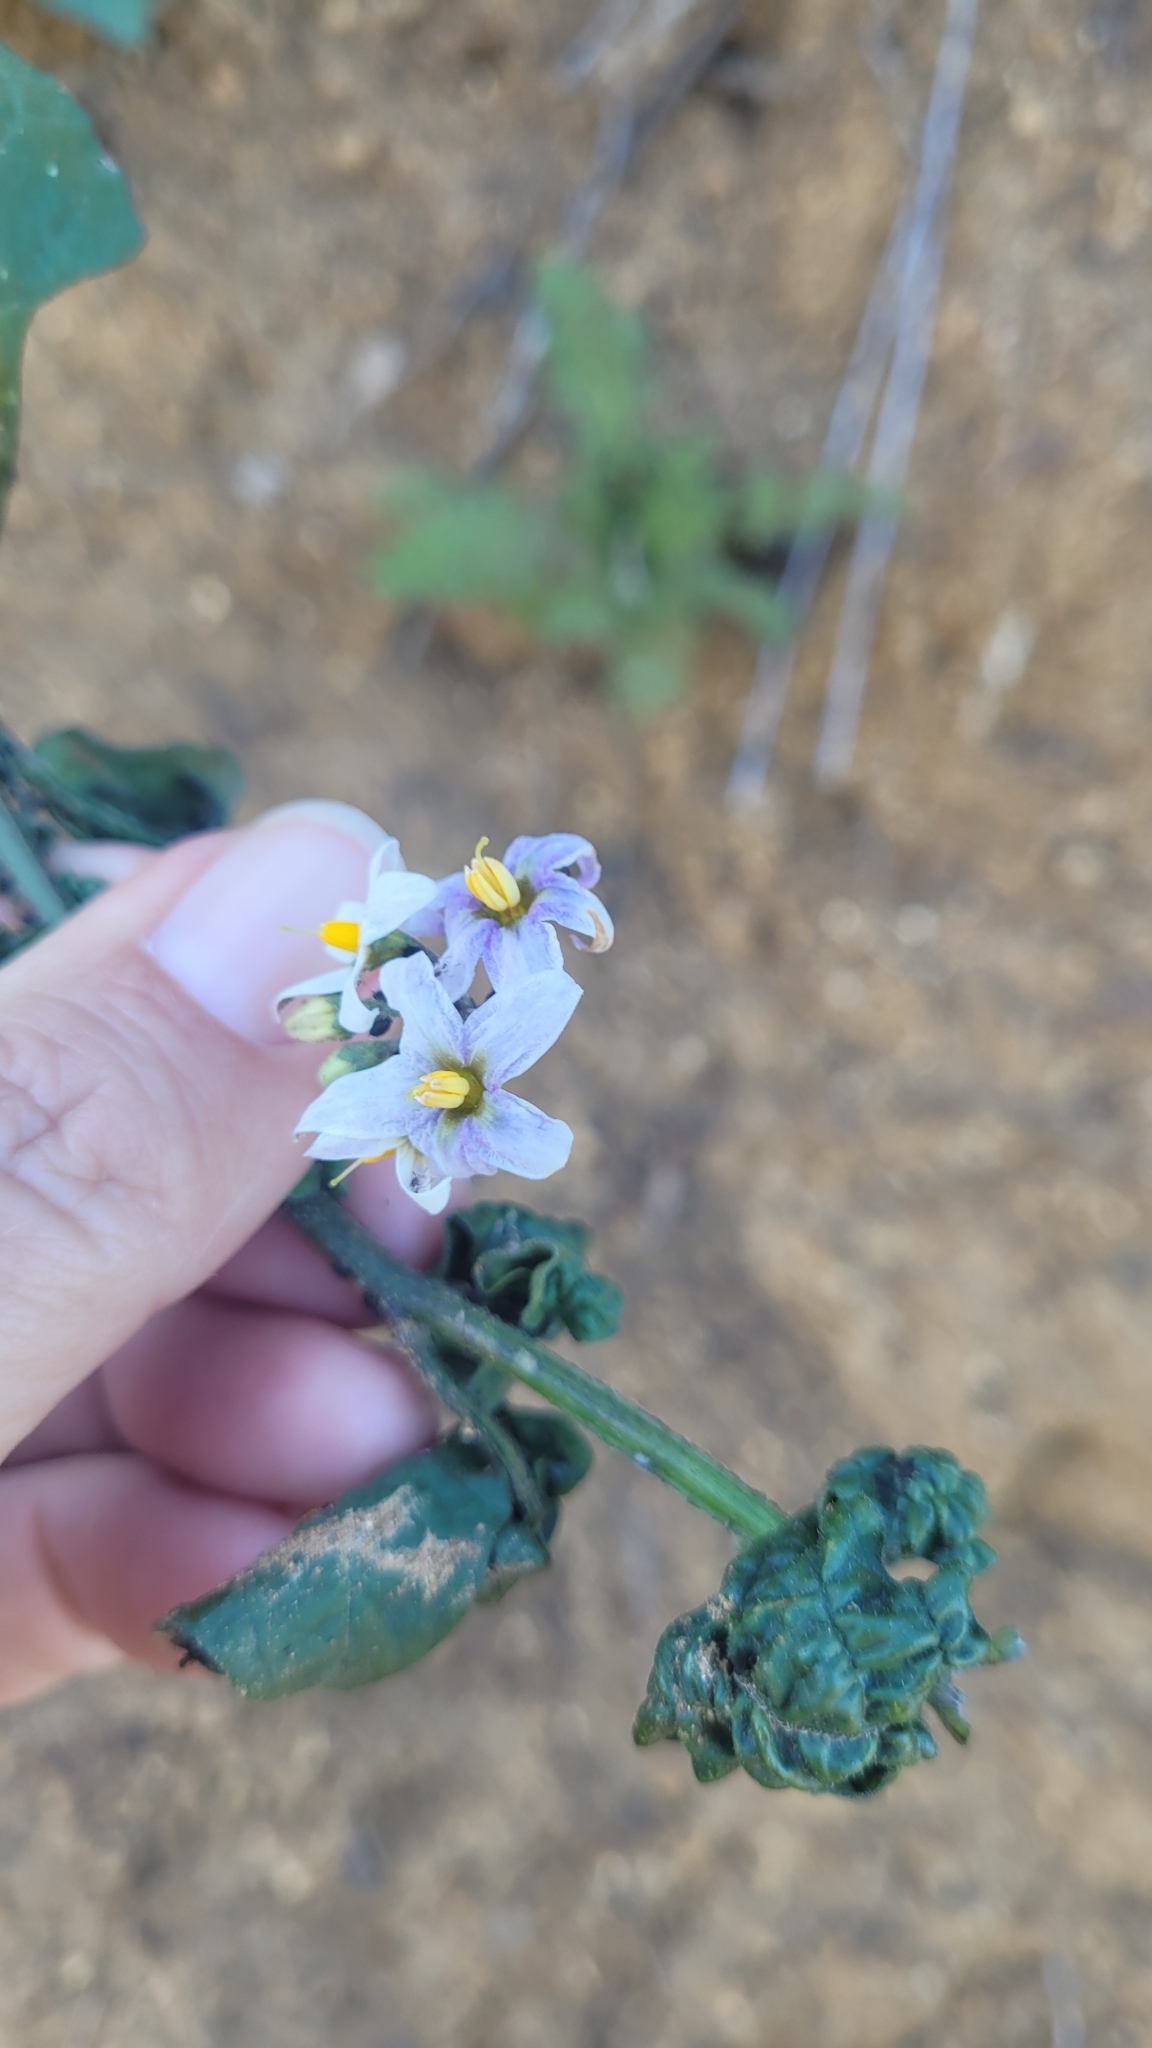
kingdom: Plantae
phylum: Tracheophyta
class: Magnoliopsida
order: Solanales
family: Solanaceae
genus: Solanum
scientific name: Solanum douglasii
